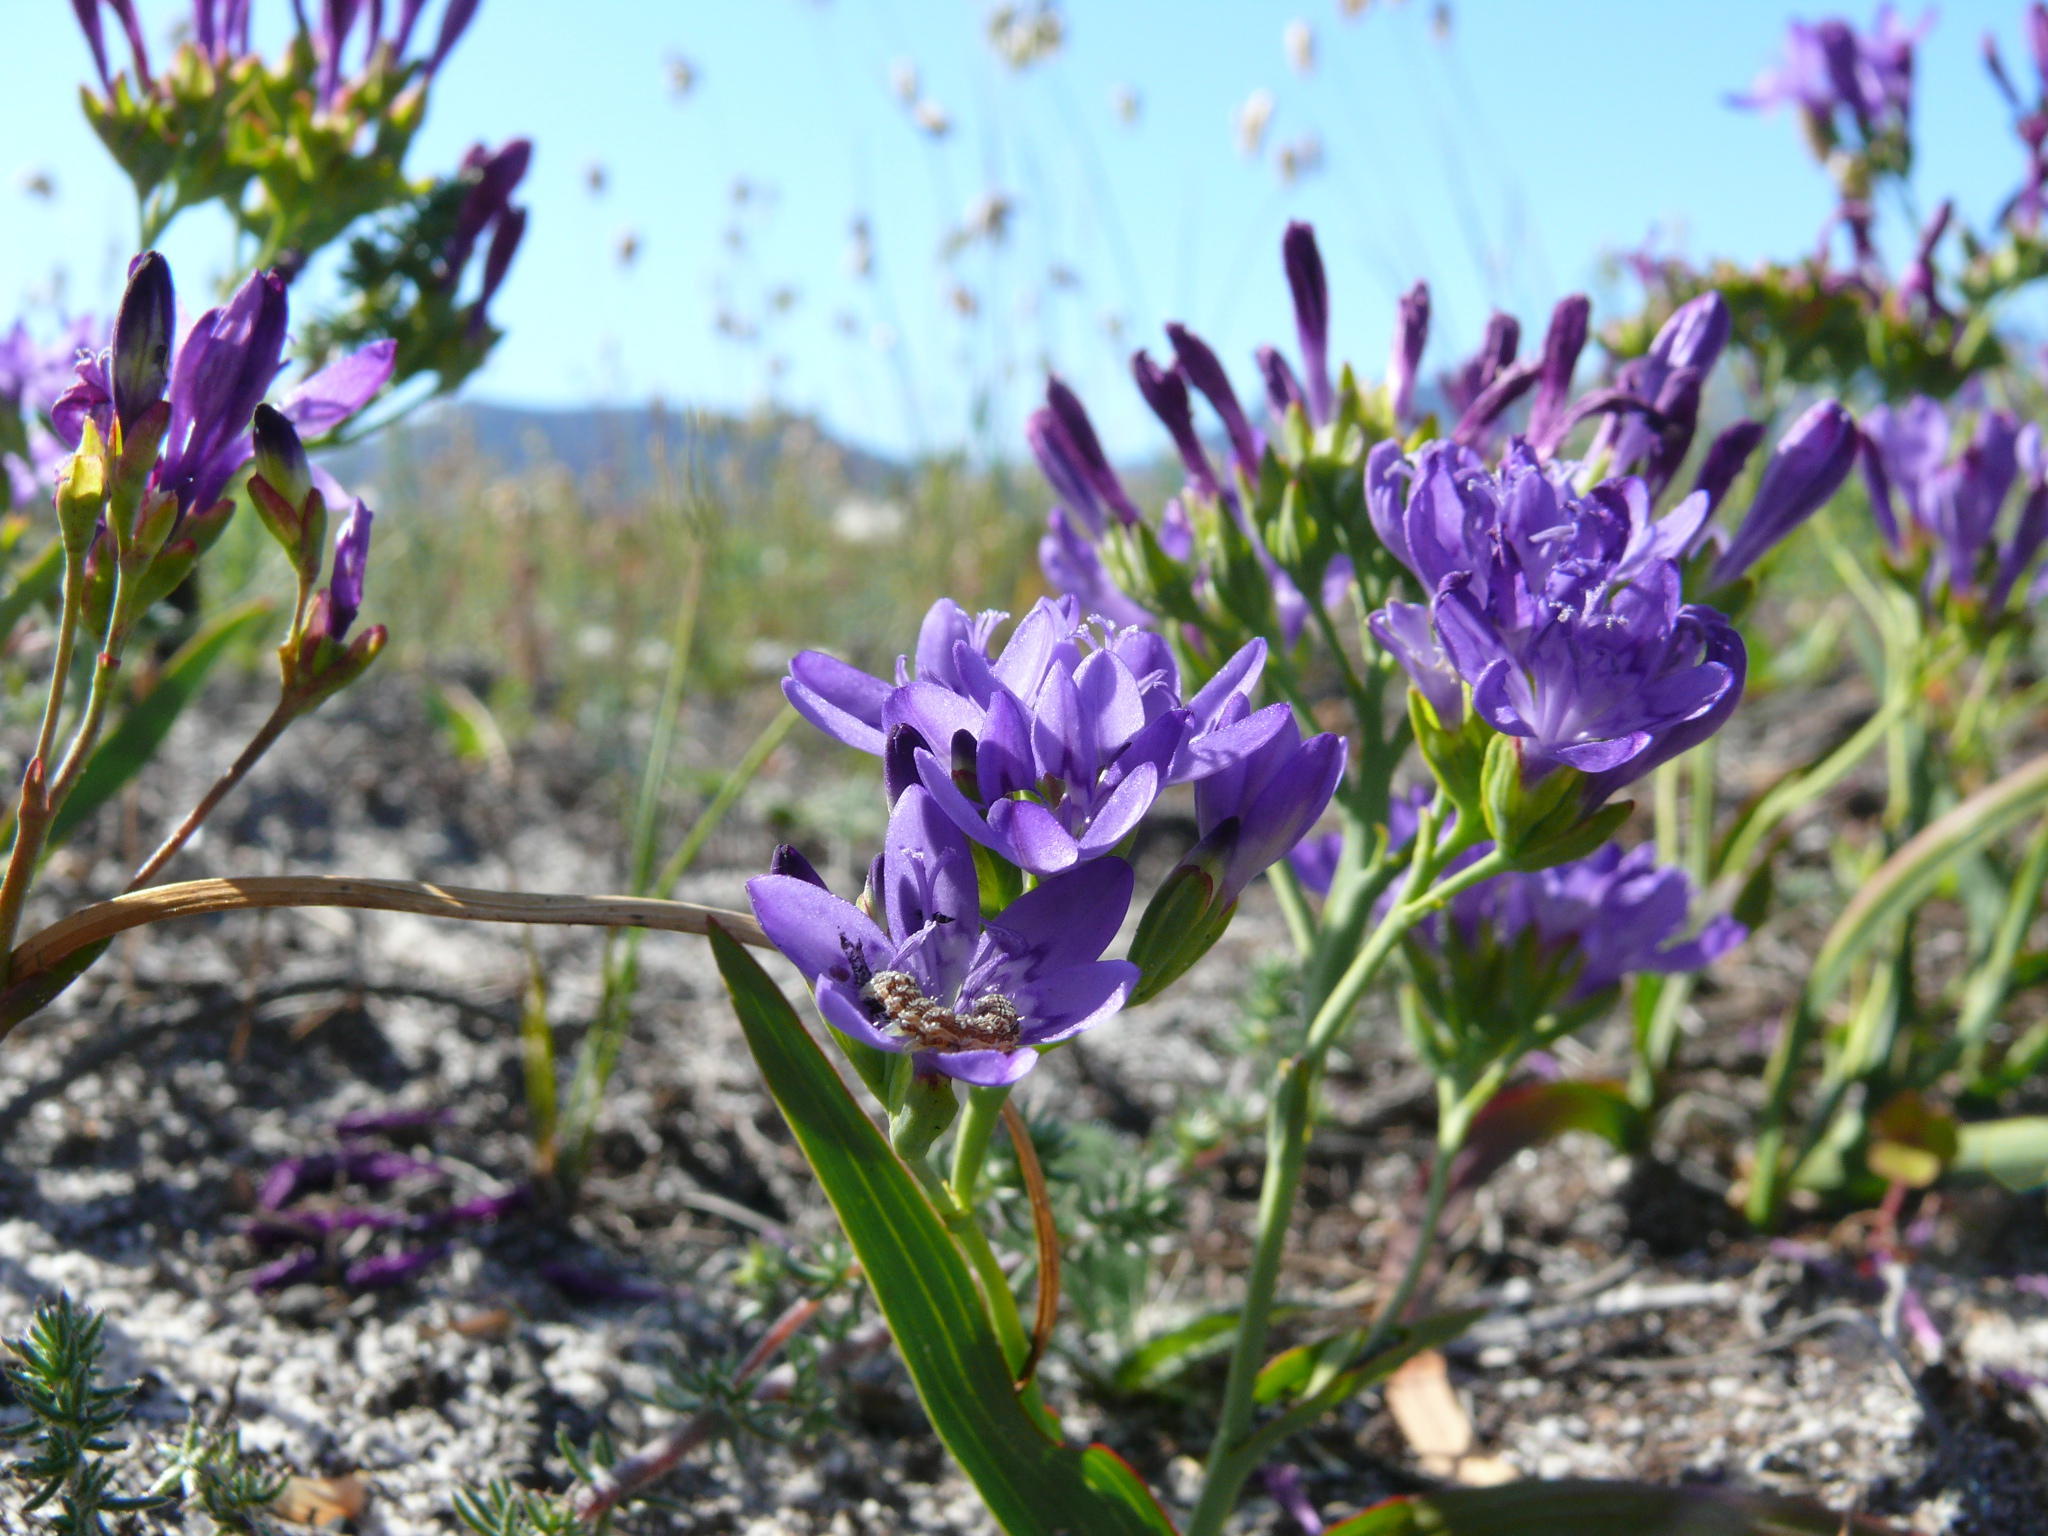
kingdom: Plantae
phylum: Tracheophyta
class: Liliopsida
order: Asparagales
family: Iridaceae
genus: Codonorhiza
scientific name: Codonorhiza corymbosa
